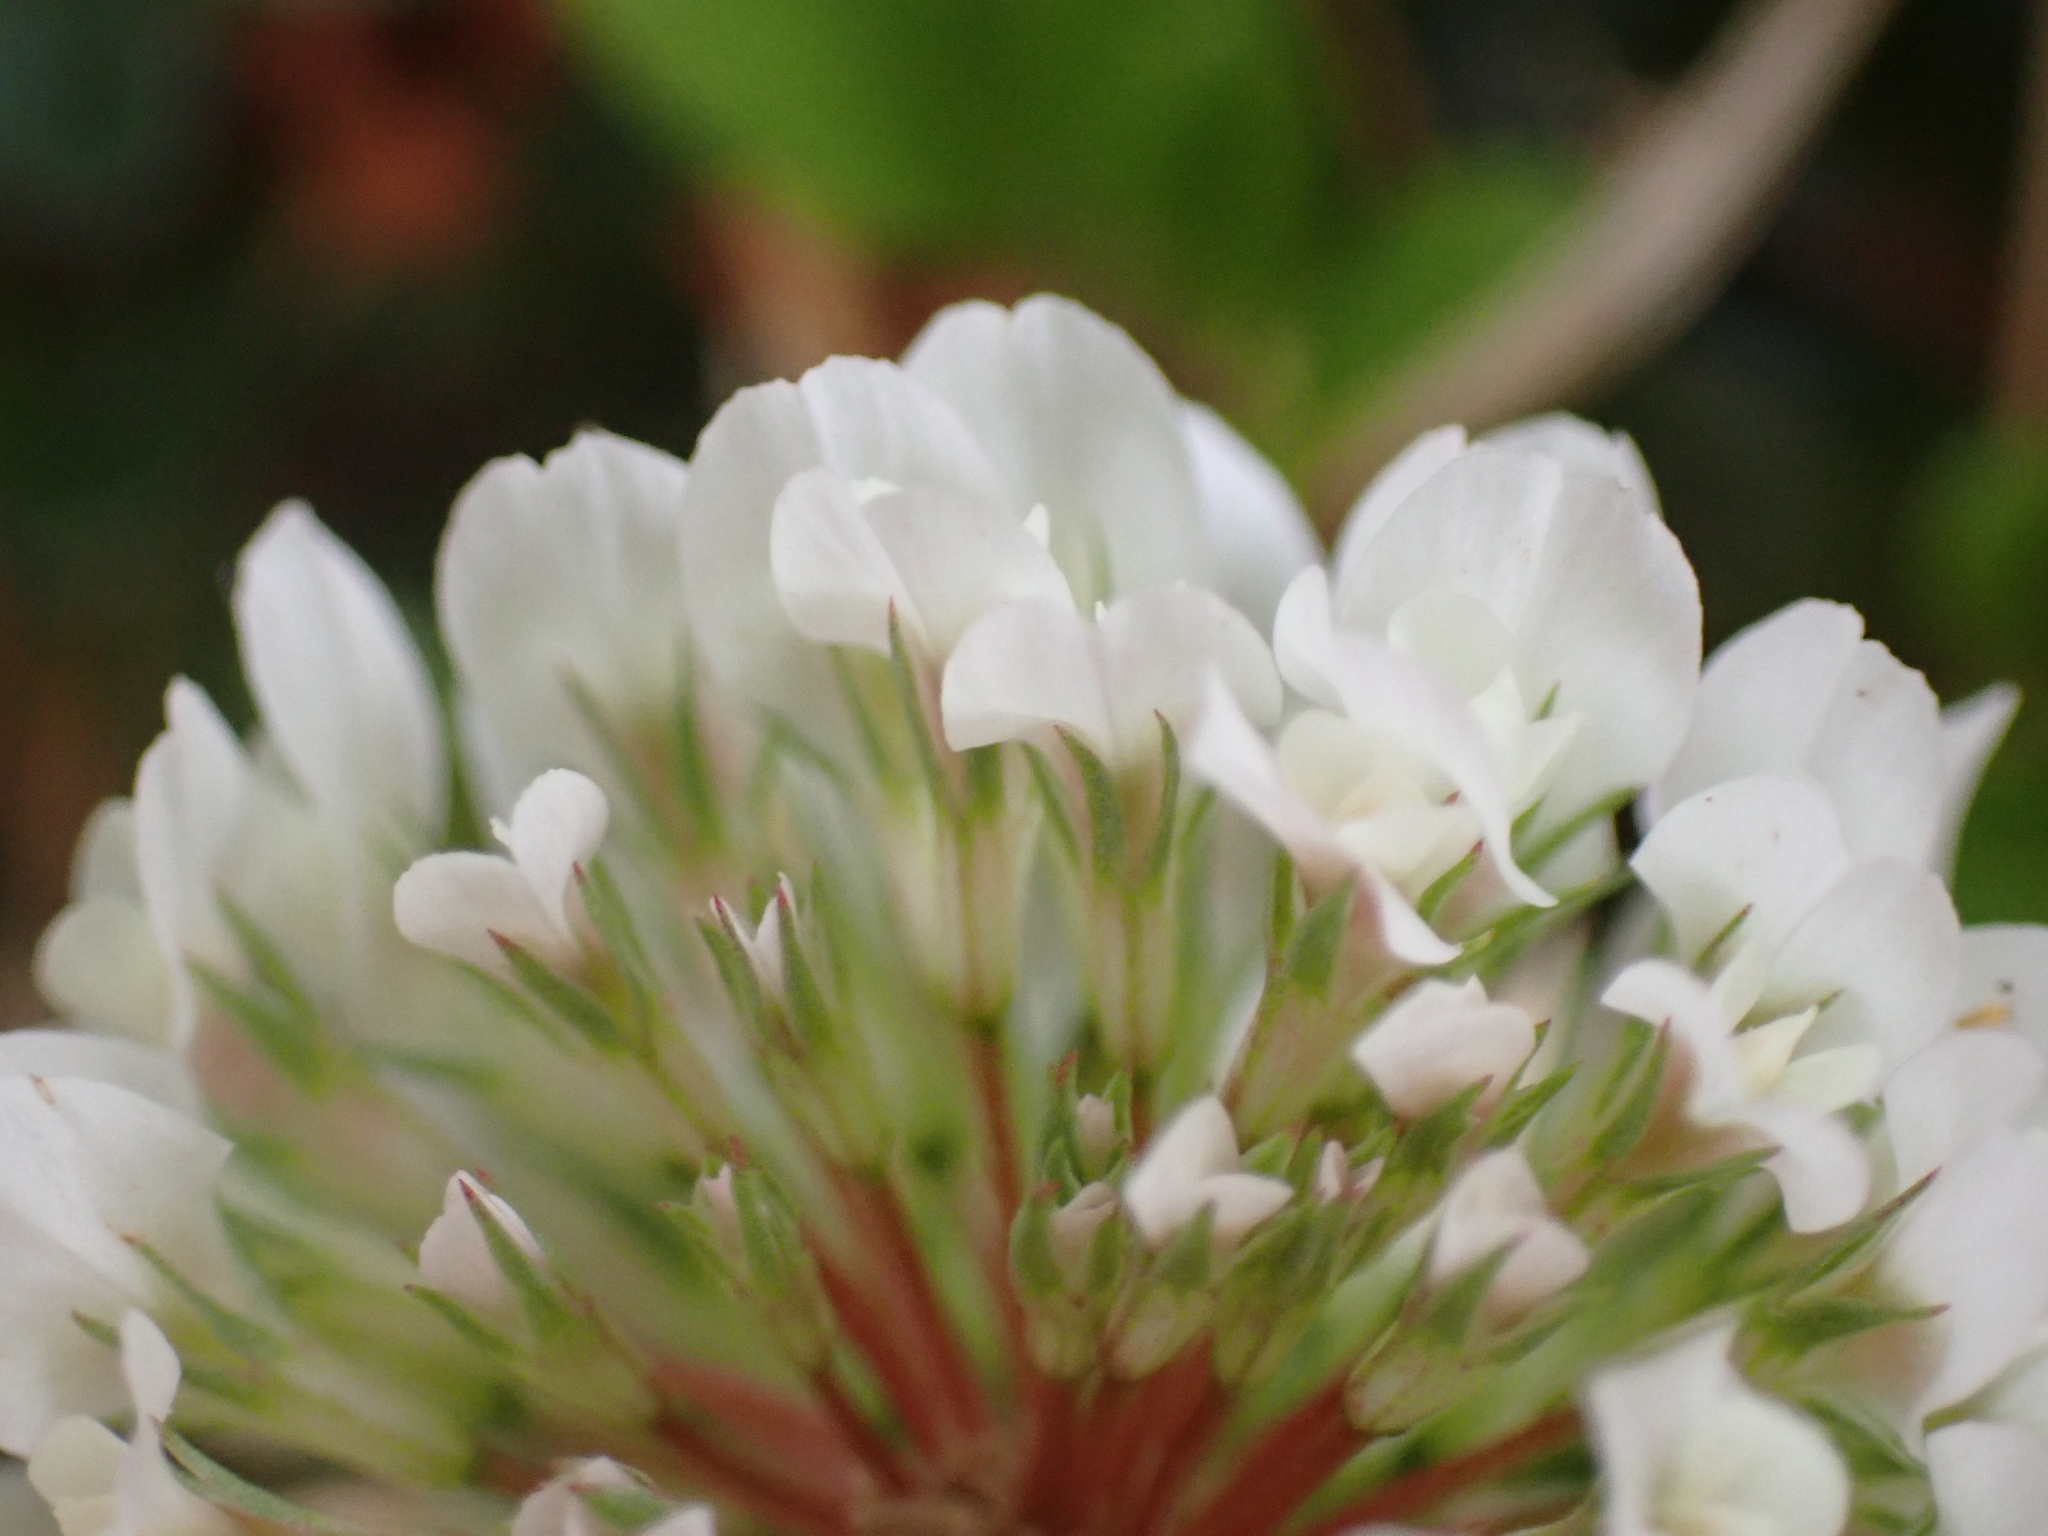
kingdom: Plantae
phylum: Tracheophyta
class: Magnoliopsida
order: Fabales
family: Fabaceae
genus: Trifolium
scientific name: Trifolium repens
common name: White clover
